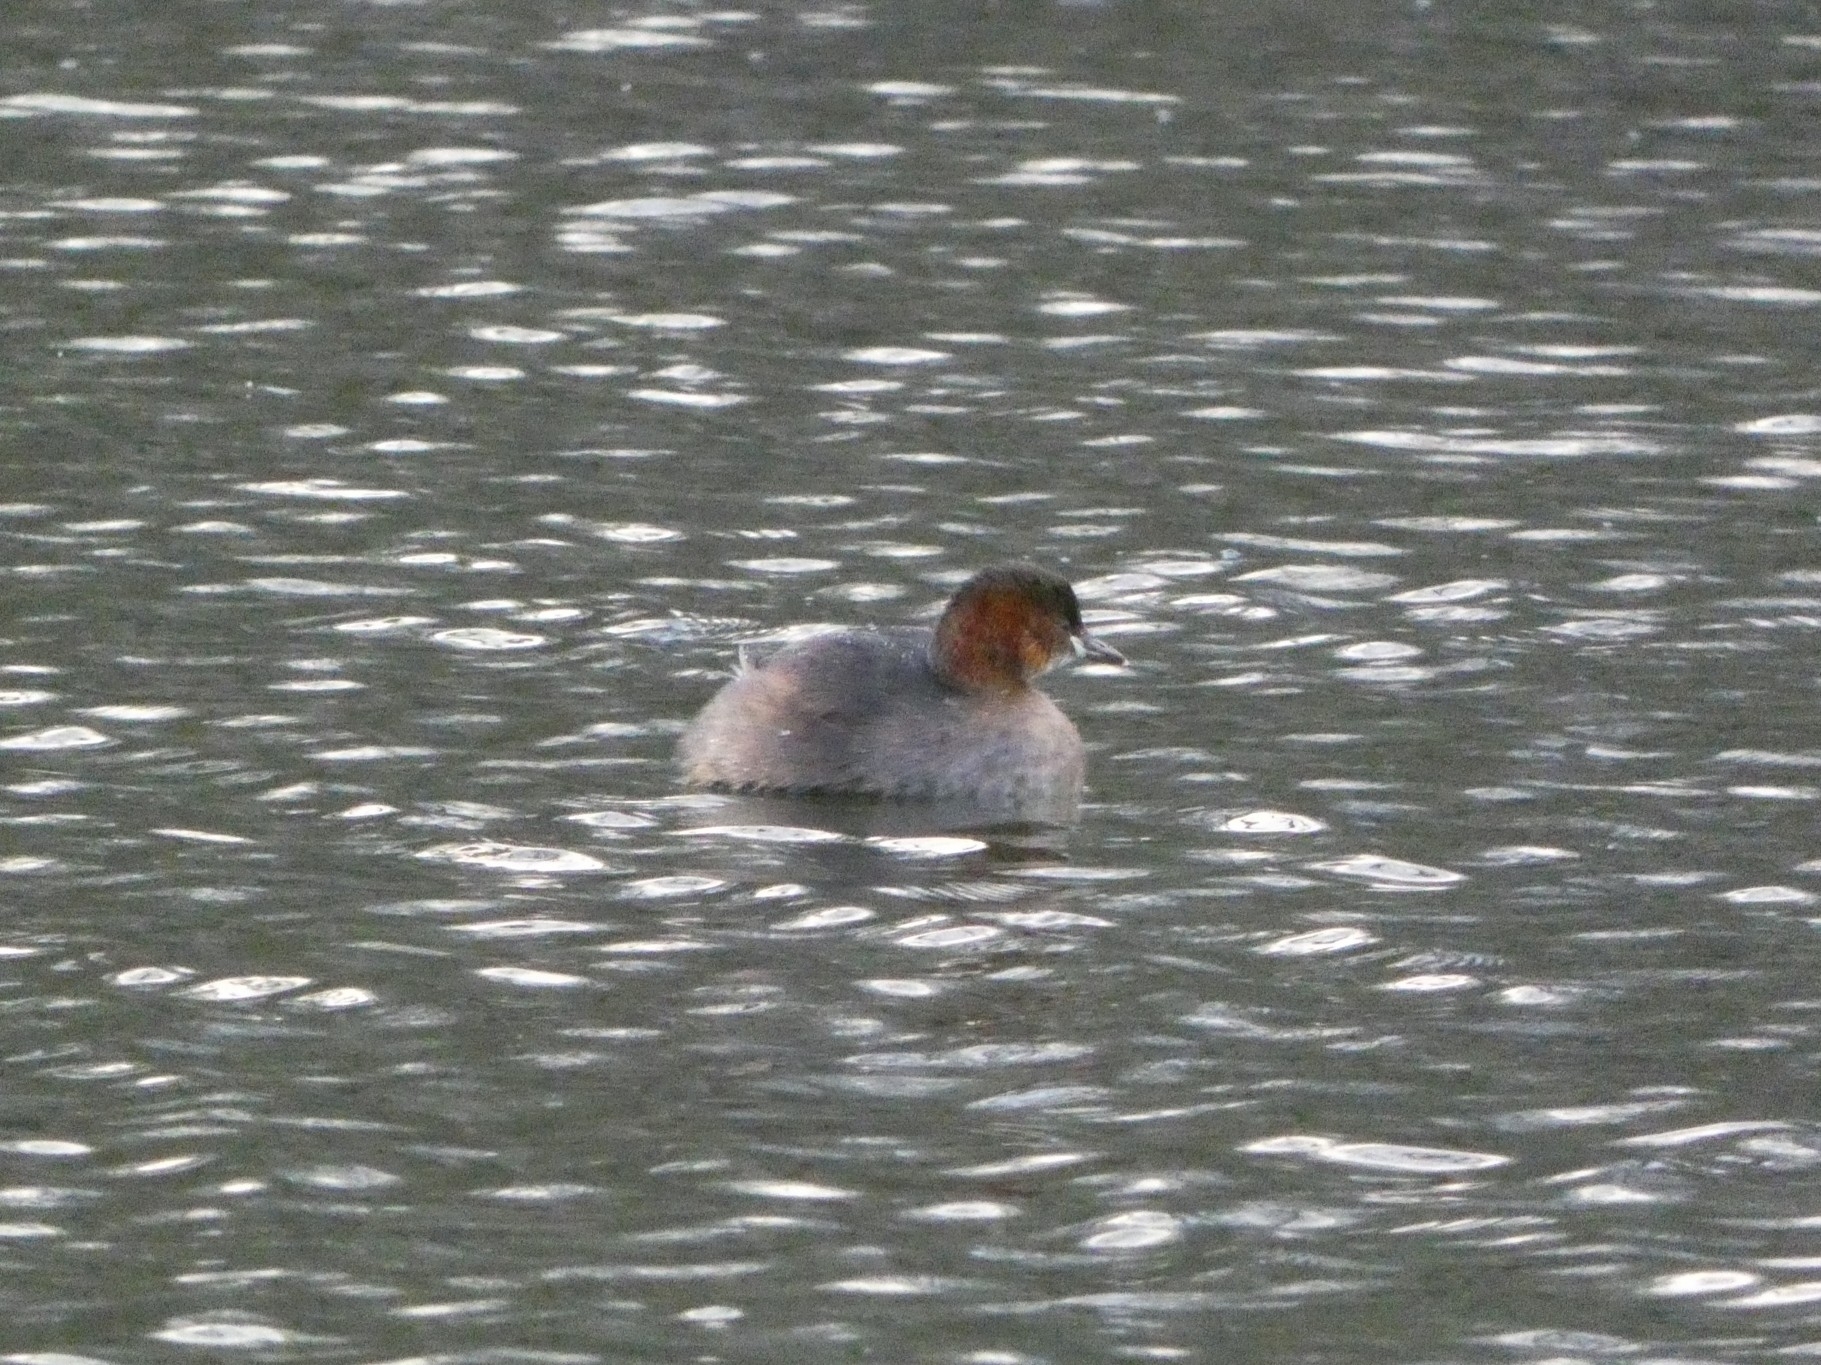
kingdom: Animalia
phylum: Chordata
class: Aves
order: Podicipediformes
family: Podicipedidae
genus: Tachybaptus
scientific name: Tachybaptus ruficollis
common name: Little grebe
